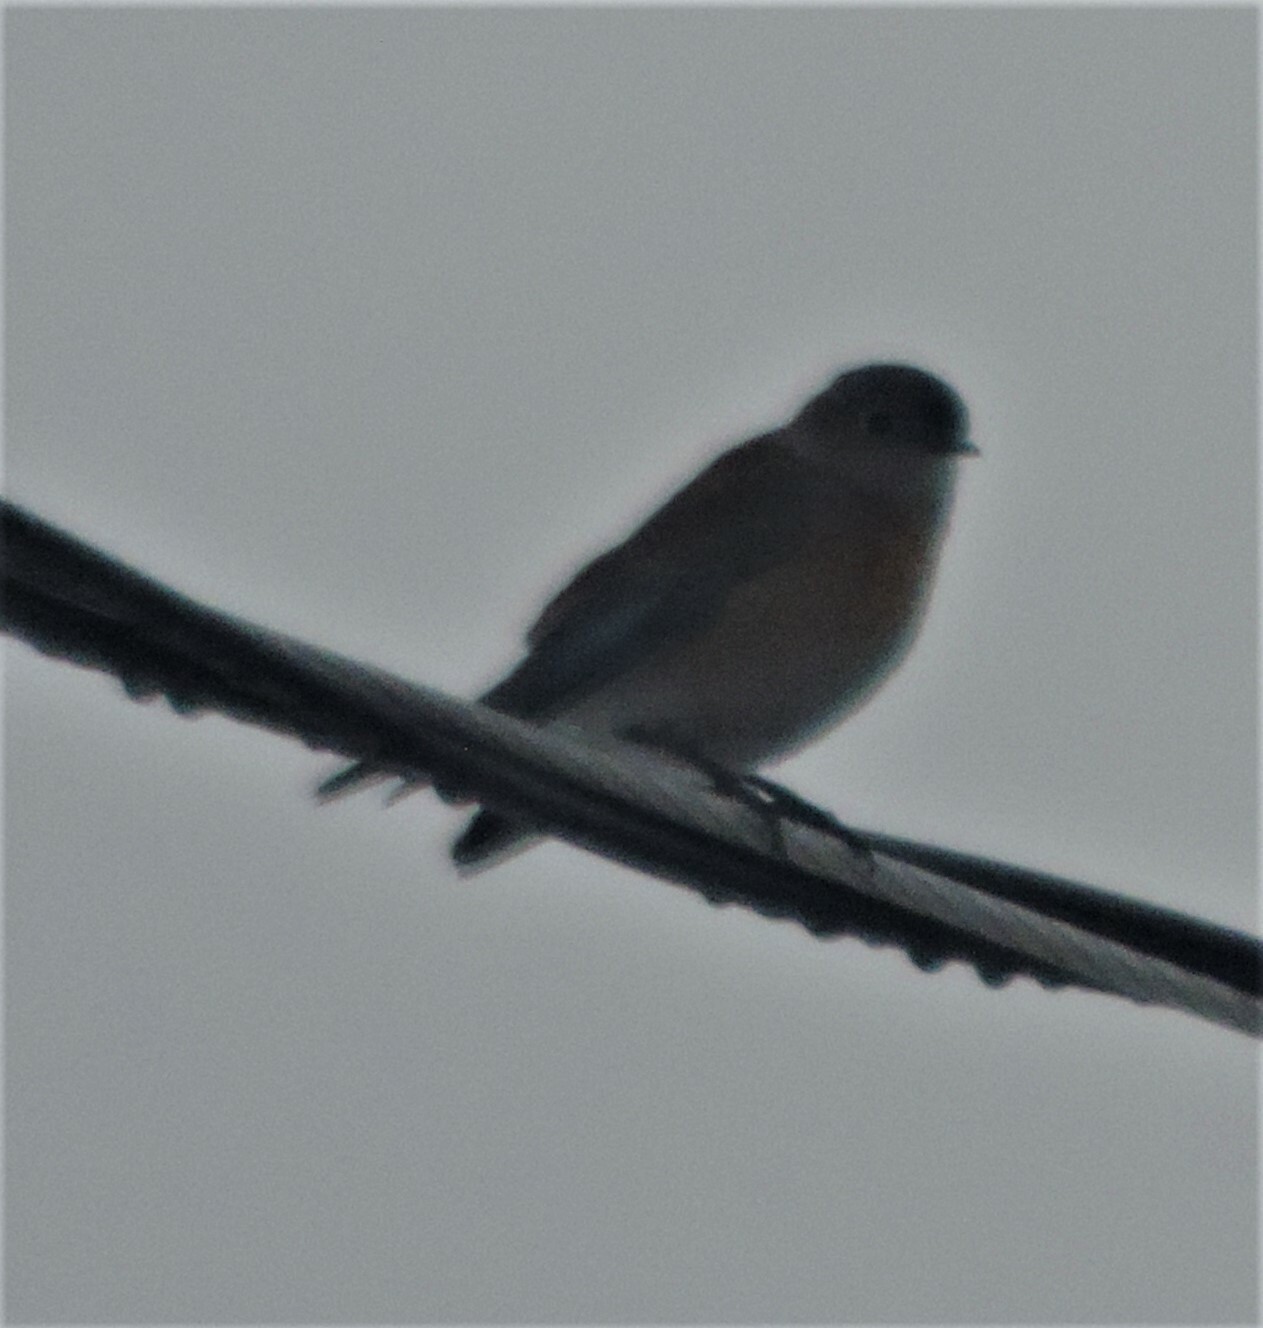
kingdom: Animalia
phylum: Chordata
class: Aves
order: Passeriformes
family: Turdidae
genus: Sialia
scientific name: Sialia mexicana
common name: Western bluebird
